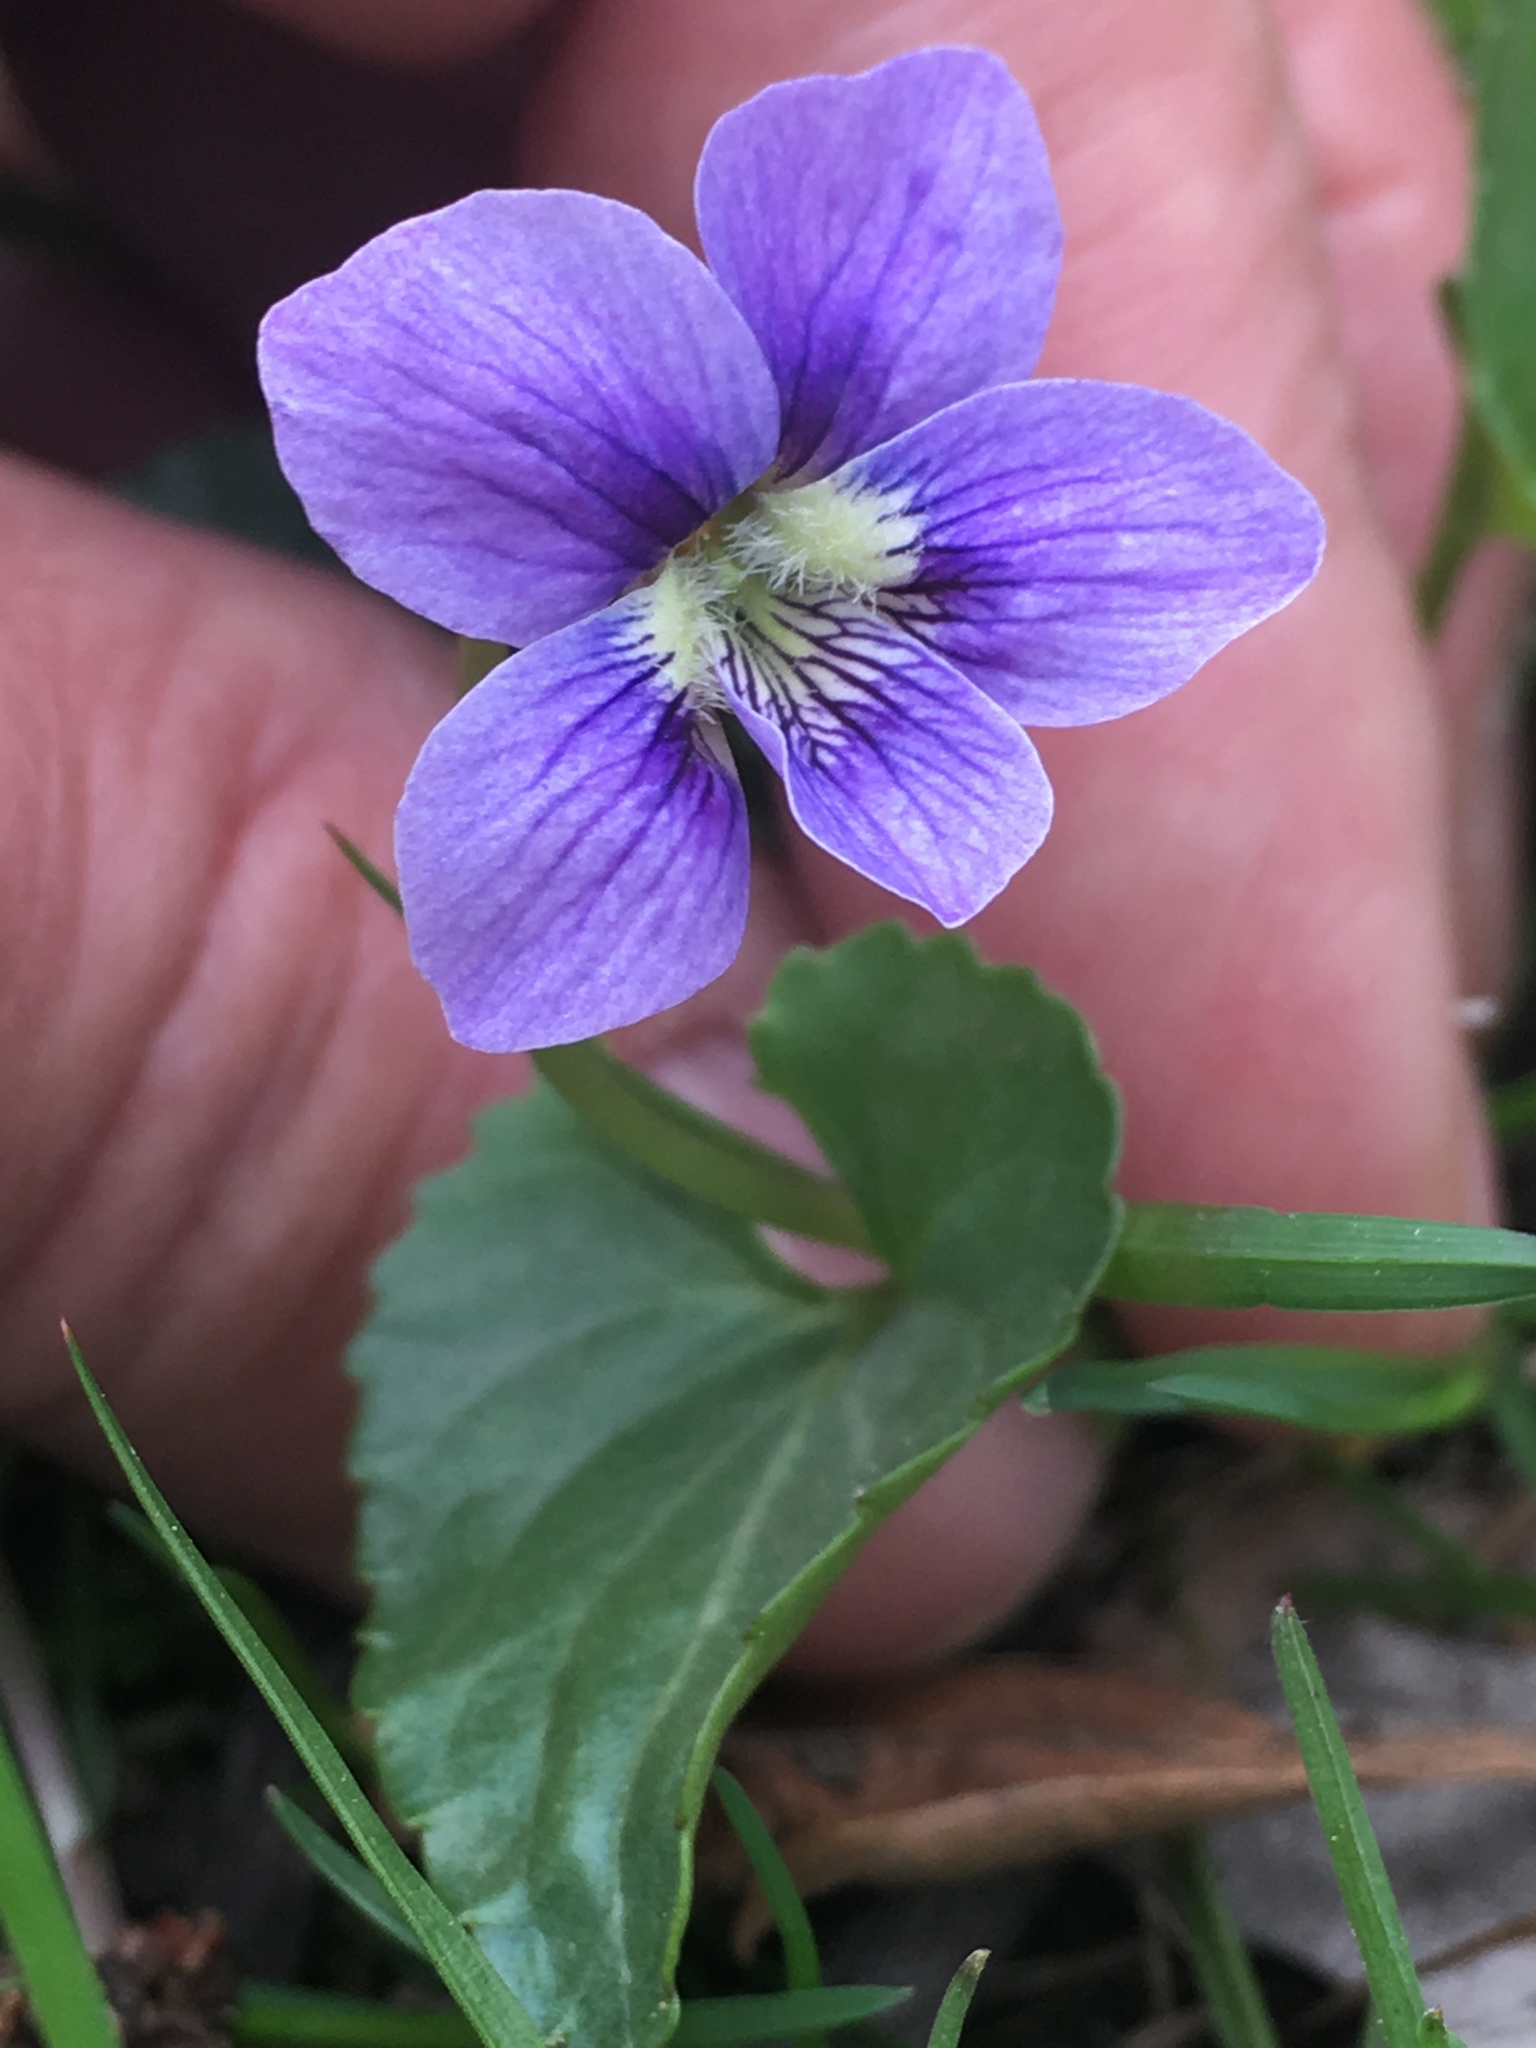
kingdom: Plantae
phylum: Tracheophyta
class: Magnoliopsida
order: Malpighiales
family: Violaceae
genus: Viola
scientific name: Viola sororia
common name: Dooryard violet
